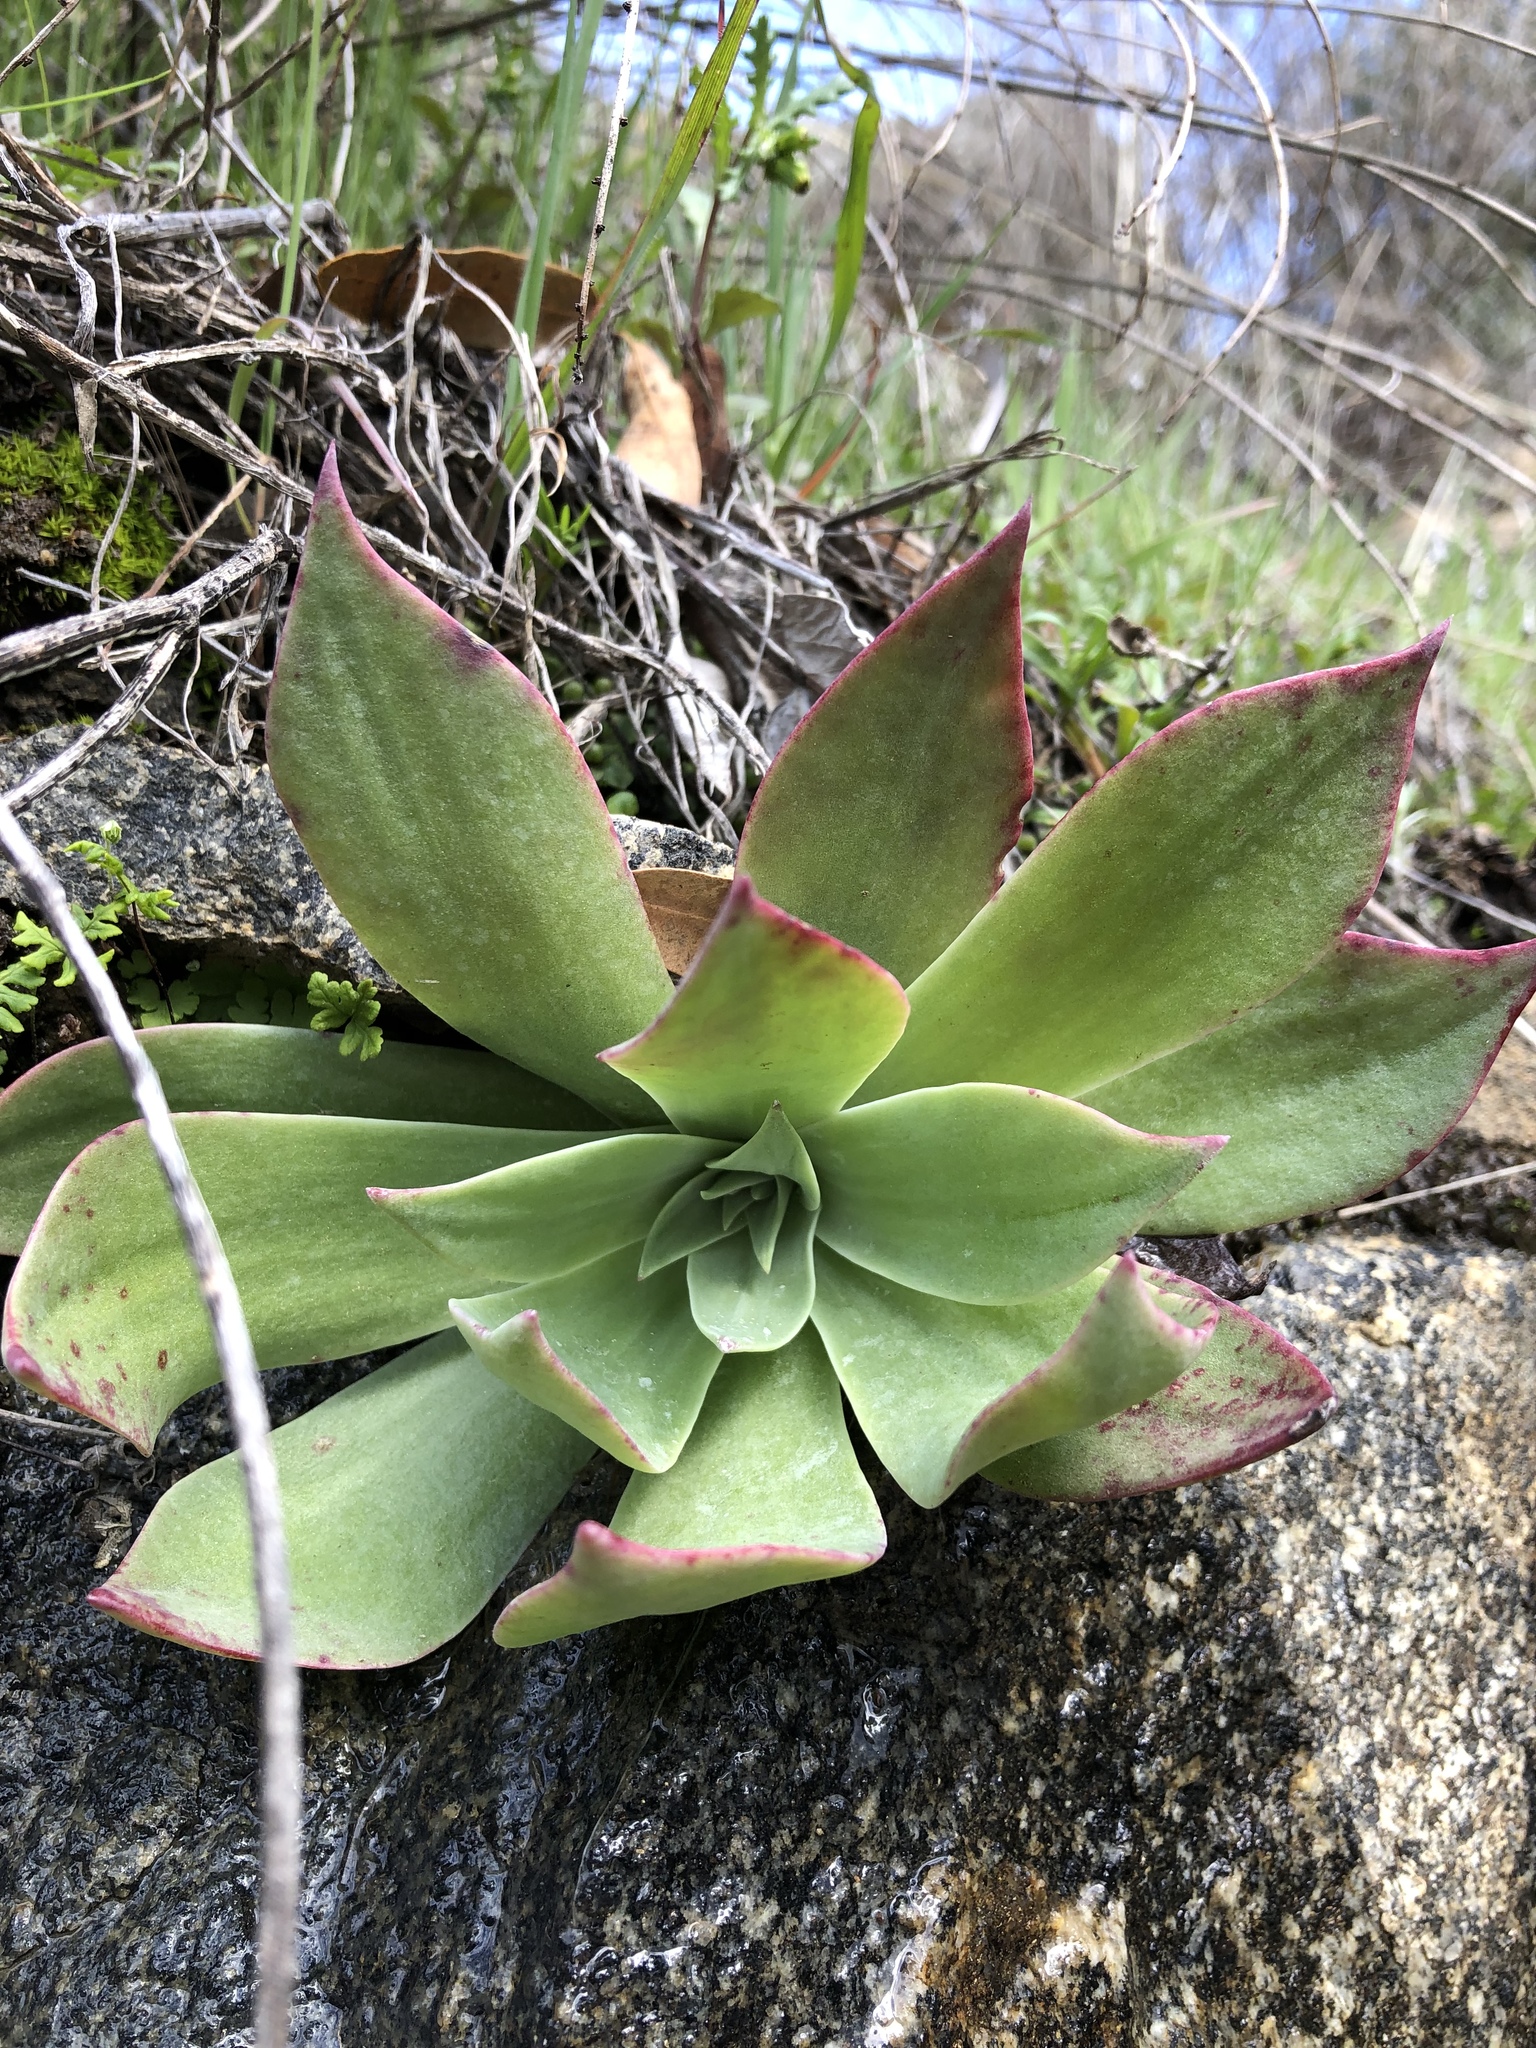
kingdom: Plantae
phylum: Tracheophyta
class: Magnoliopsida
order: Saxifragales
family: Crassulaceae
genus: Dudleya
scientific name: Dudleya pulverulenta
